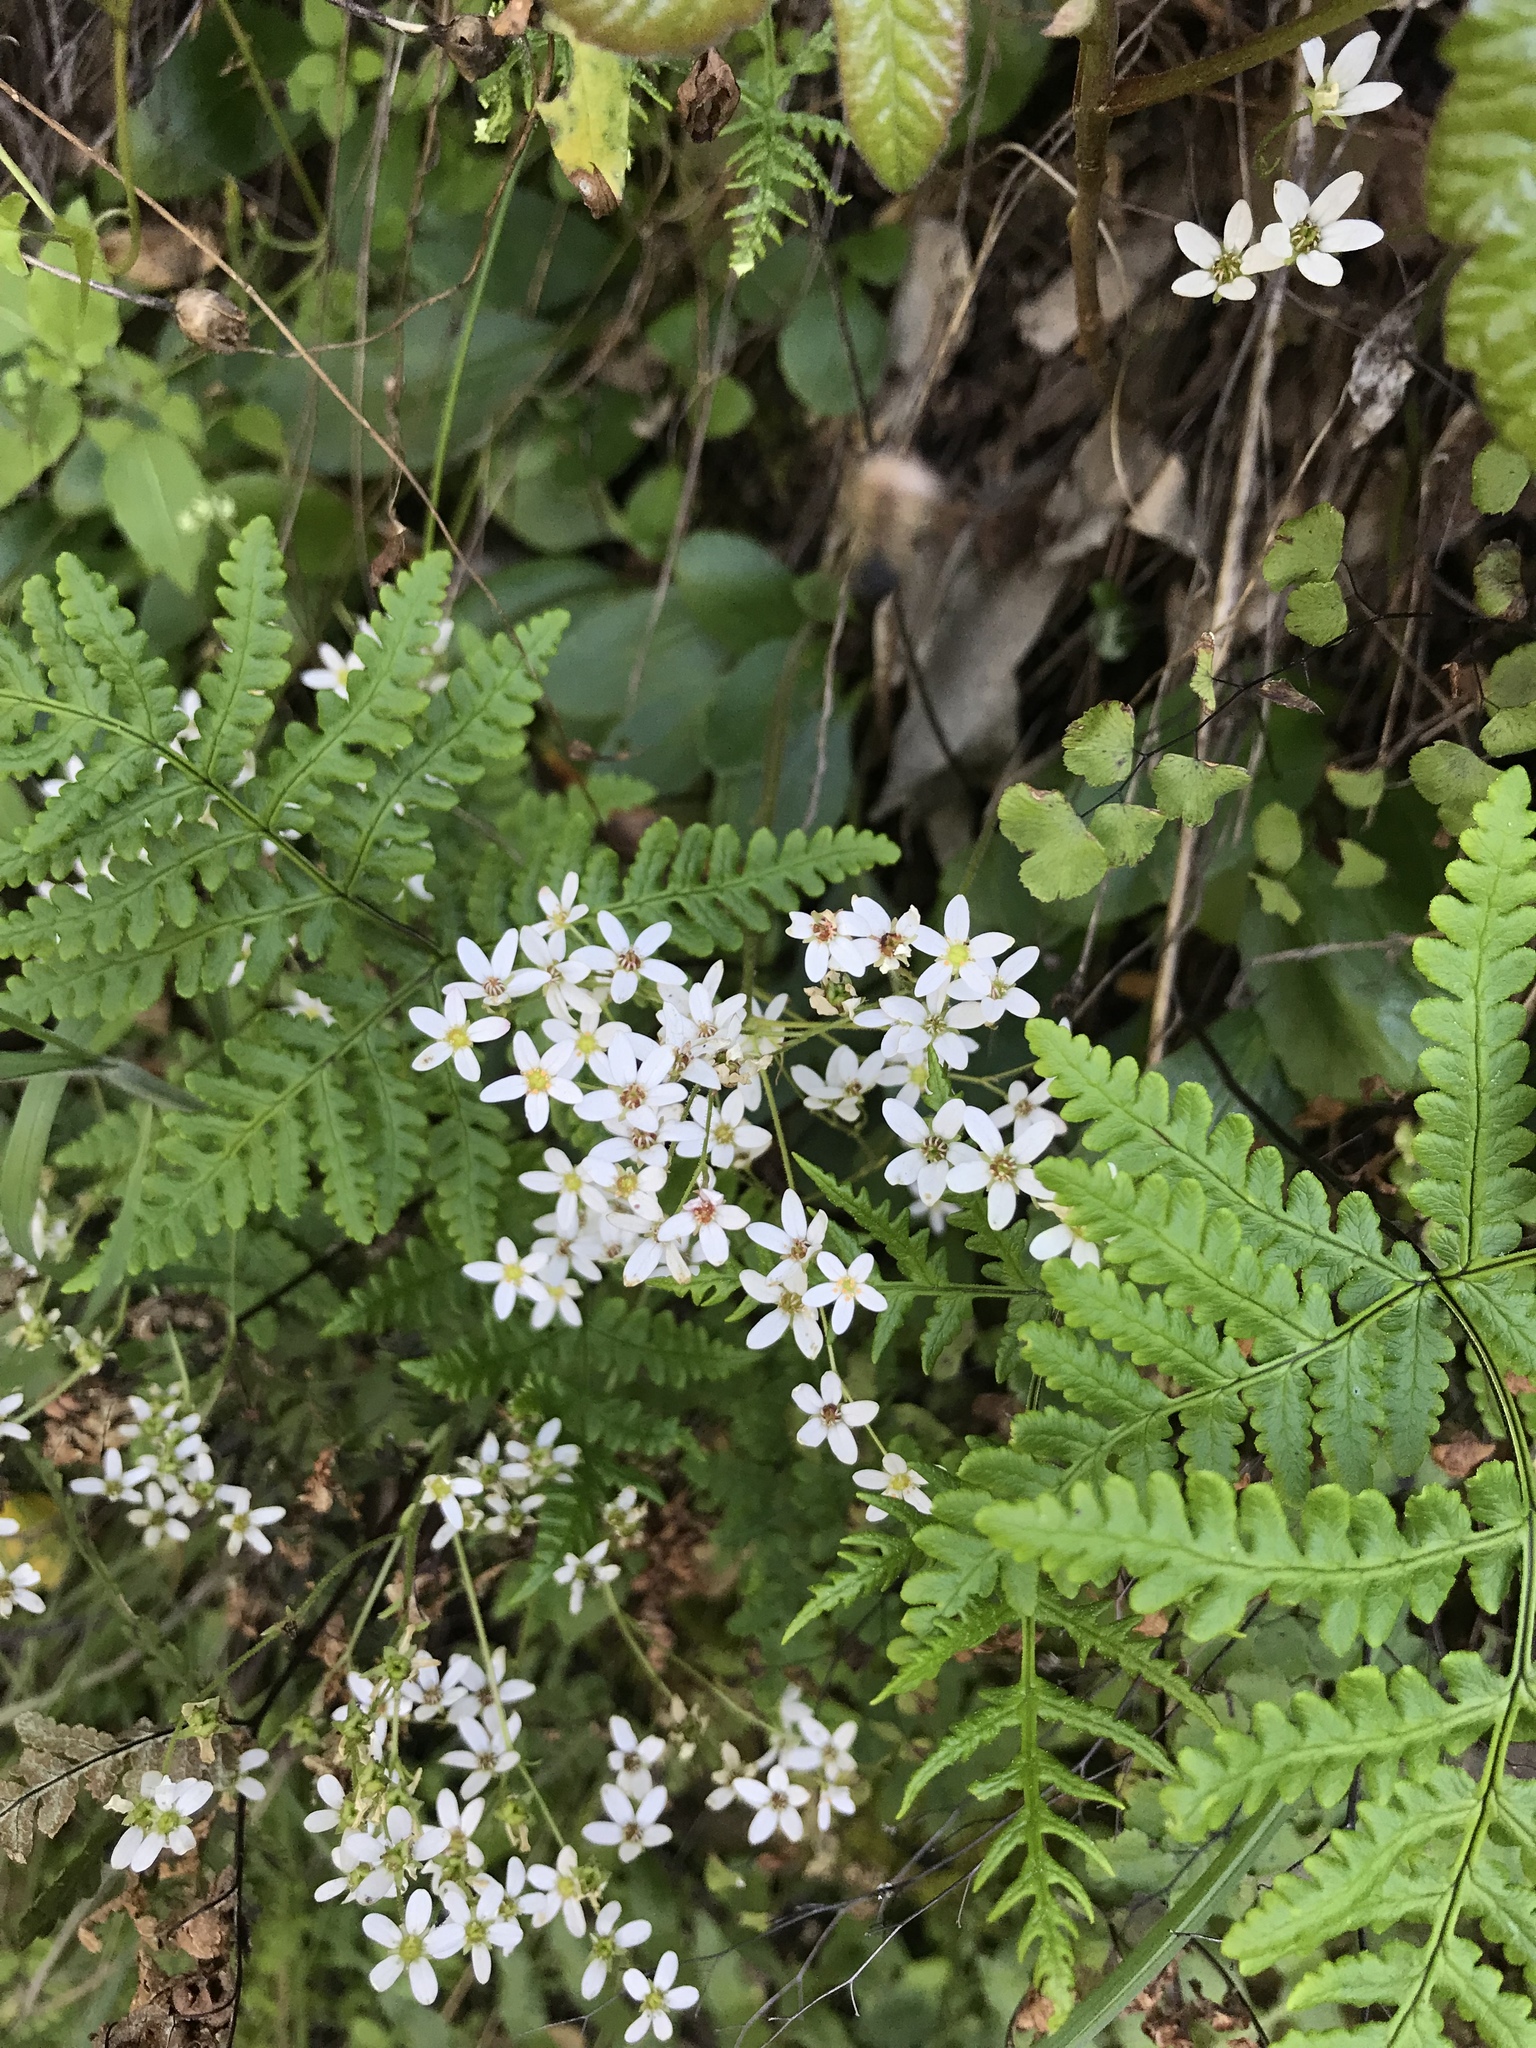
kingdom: Plantae
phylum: Tracheophyta
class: Magnoliopsida
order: Saxifragales
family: Saxifragaceae
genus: Micranthes
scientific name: Micranthes californica
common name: California saxifrage
